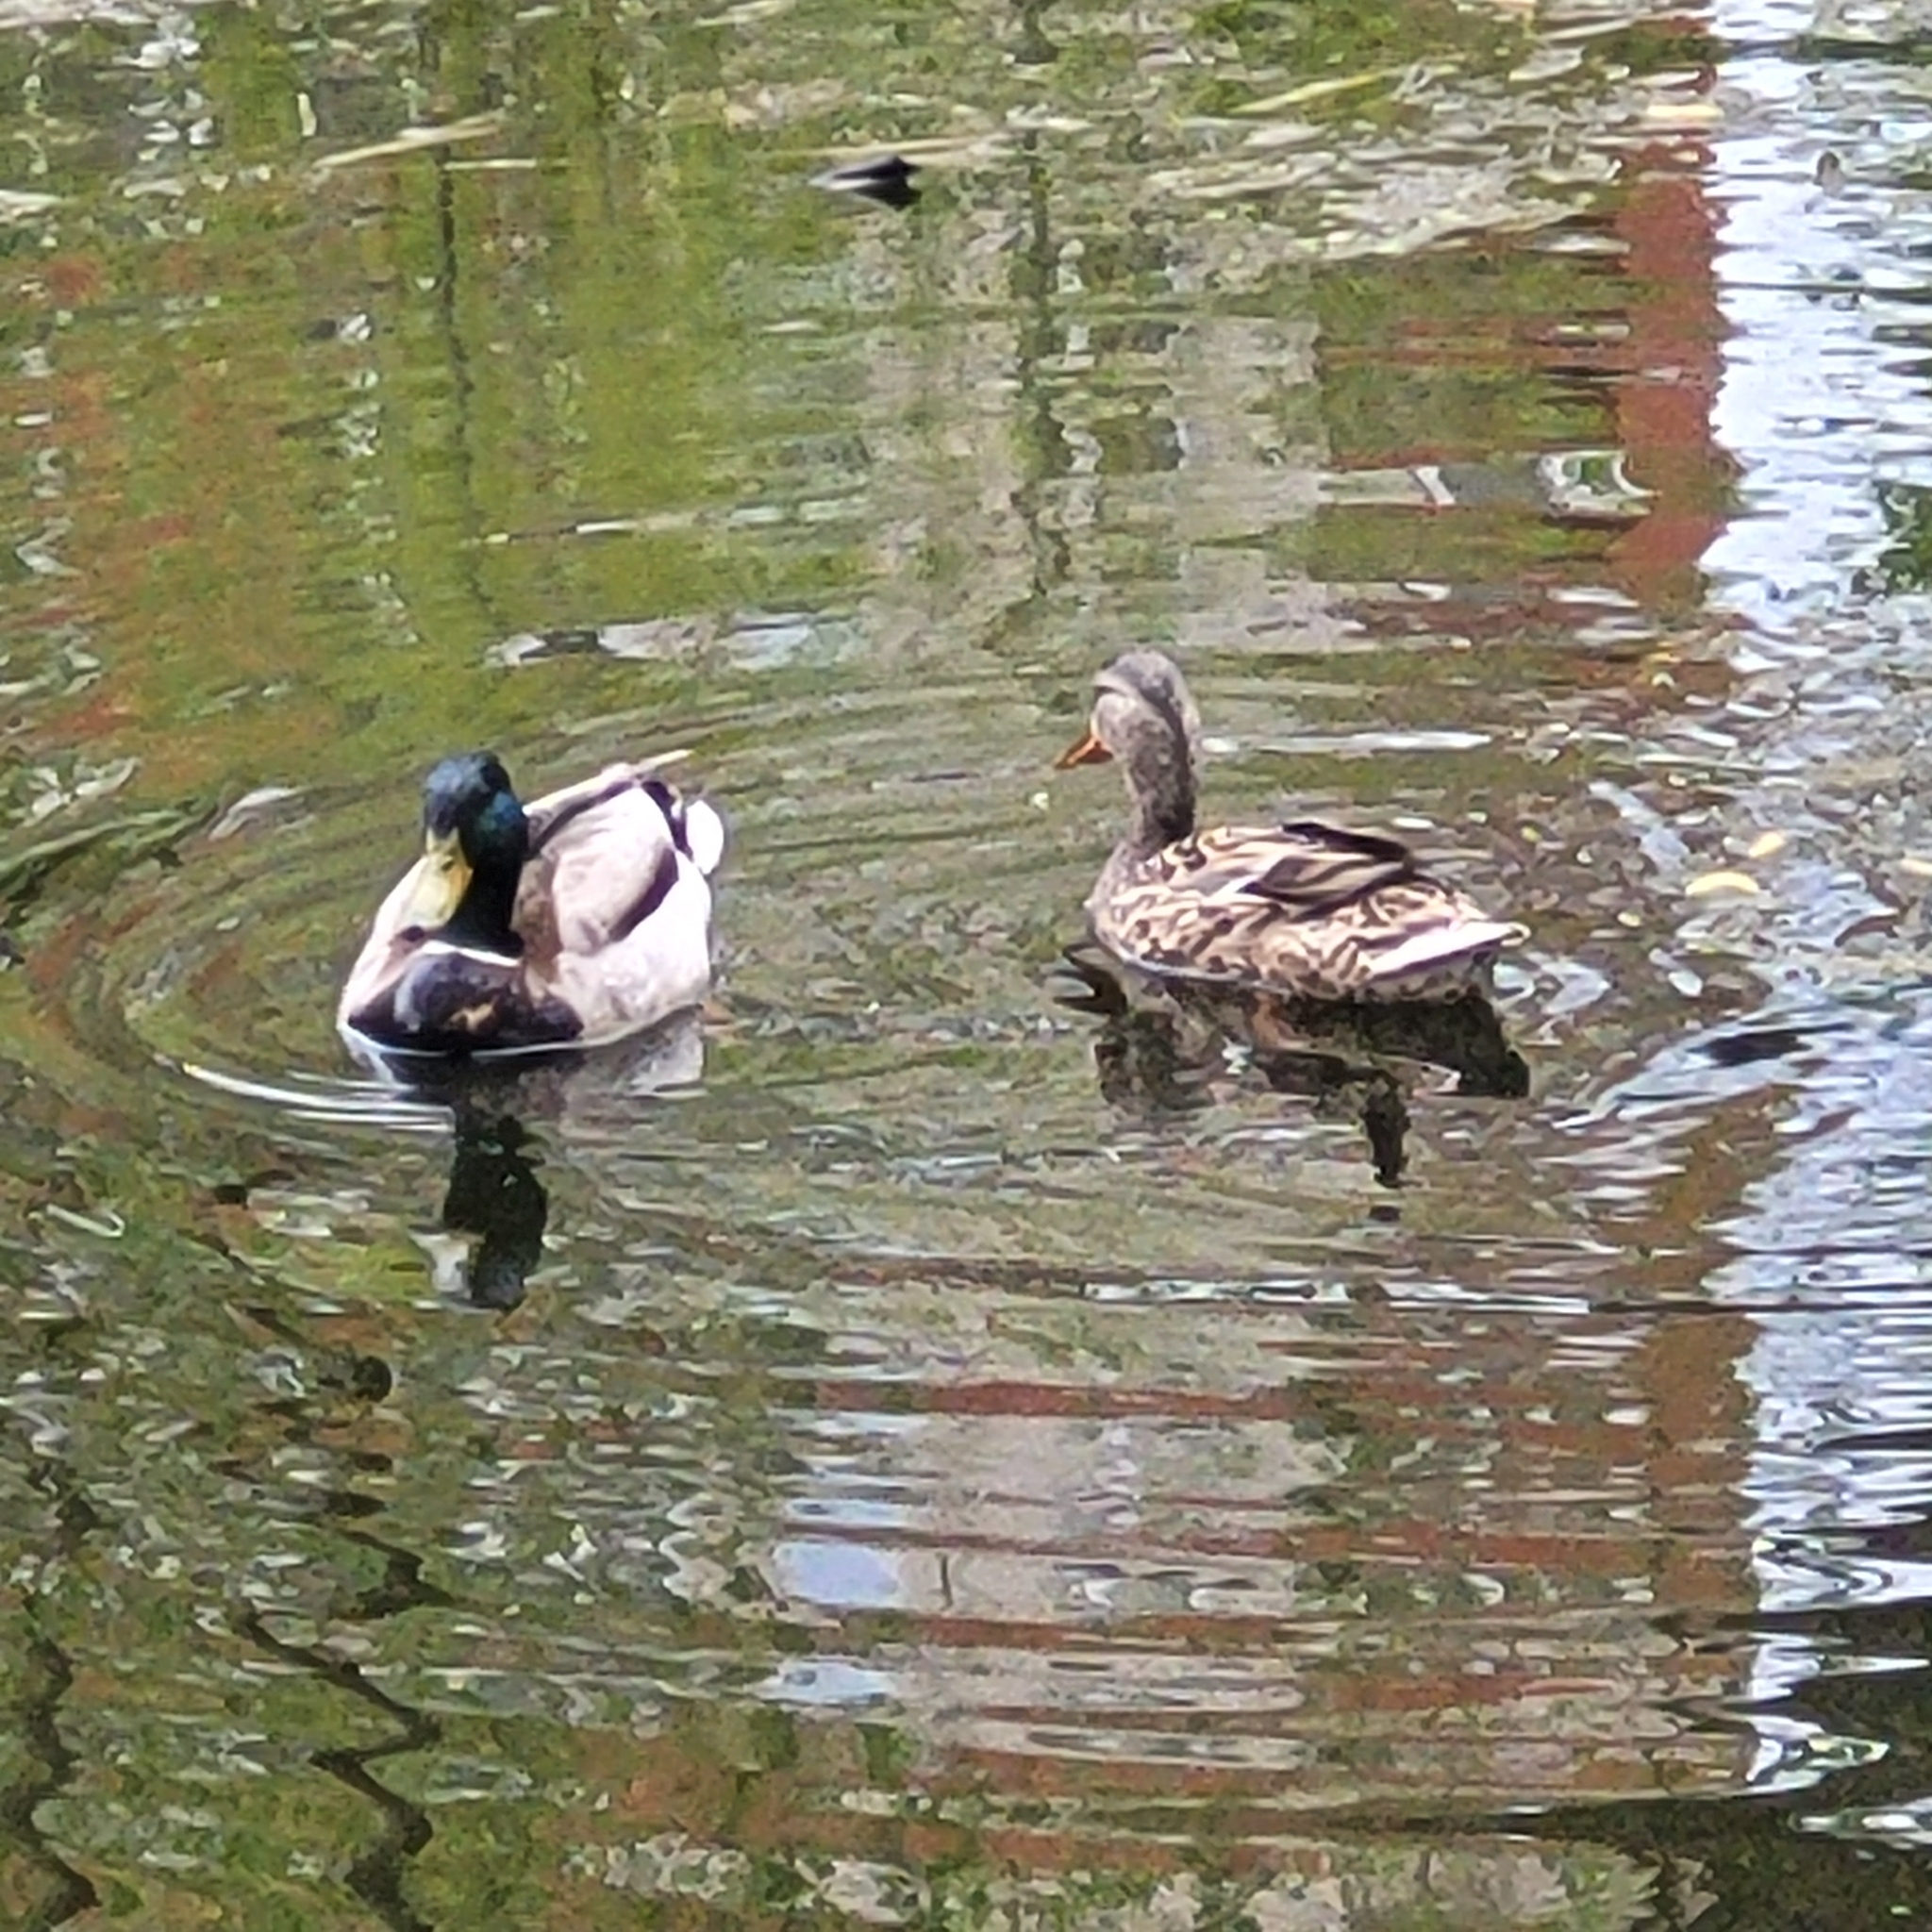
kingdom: Animalia
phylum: Chordata
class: Aves
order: Anseriformes
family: Anatidae
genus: Anas
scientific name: Anas platyrhynchos
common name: Mallard
